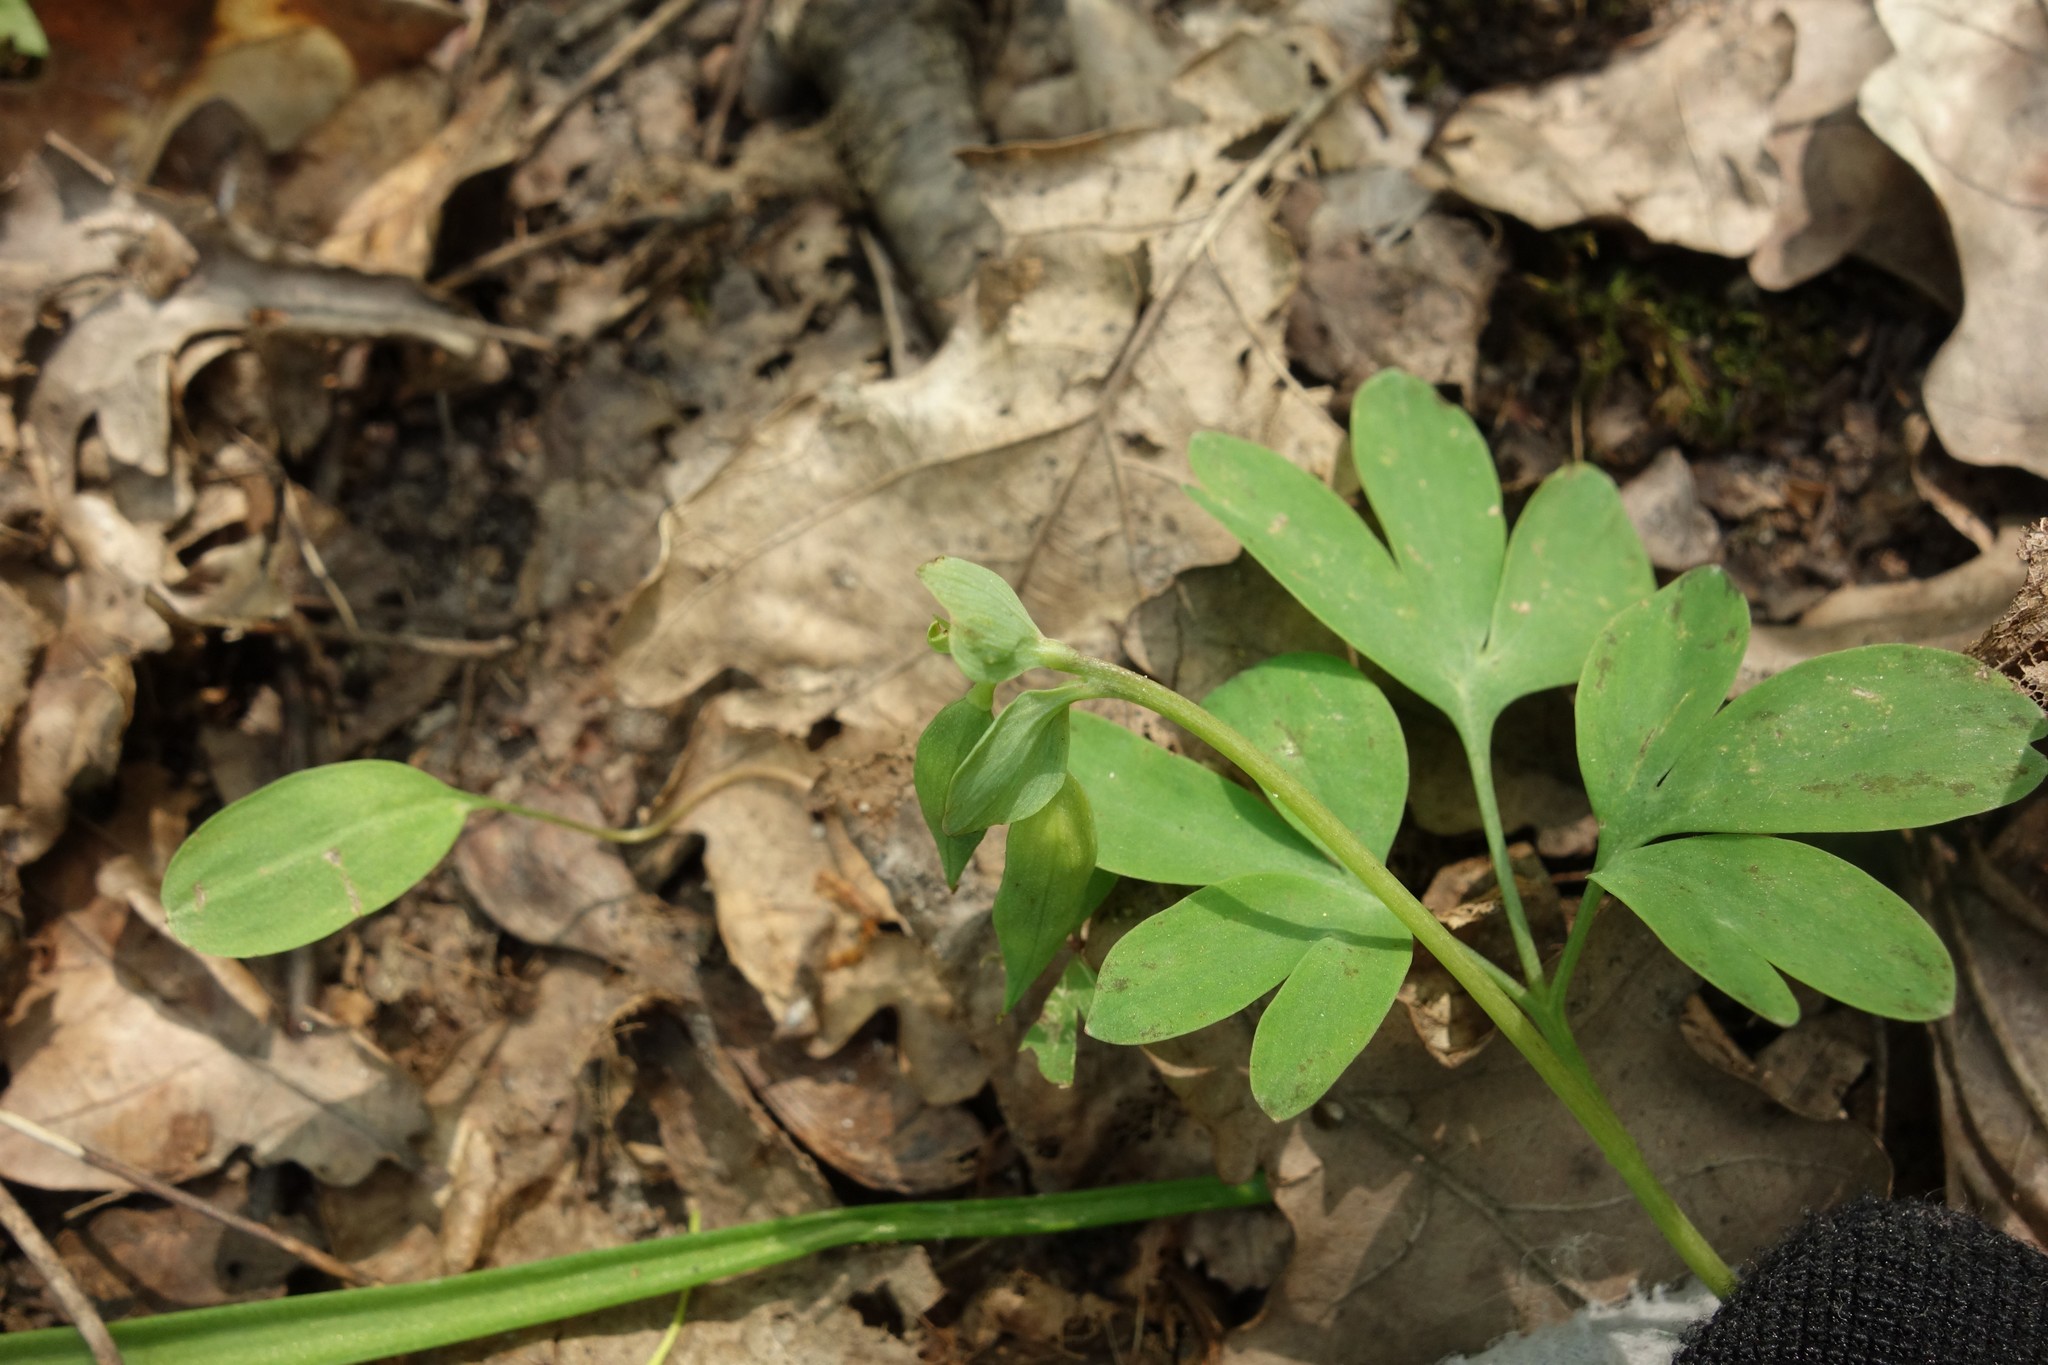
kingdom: Plantae
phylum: Tracheophyta
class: Magnoliopsida
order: Ranunculales
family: Papaveraceae
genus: Corydalis
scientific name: Corydalis intermedia
